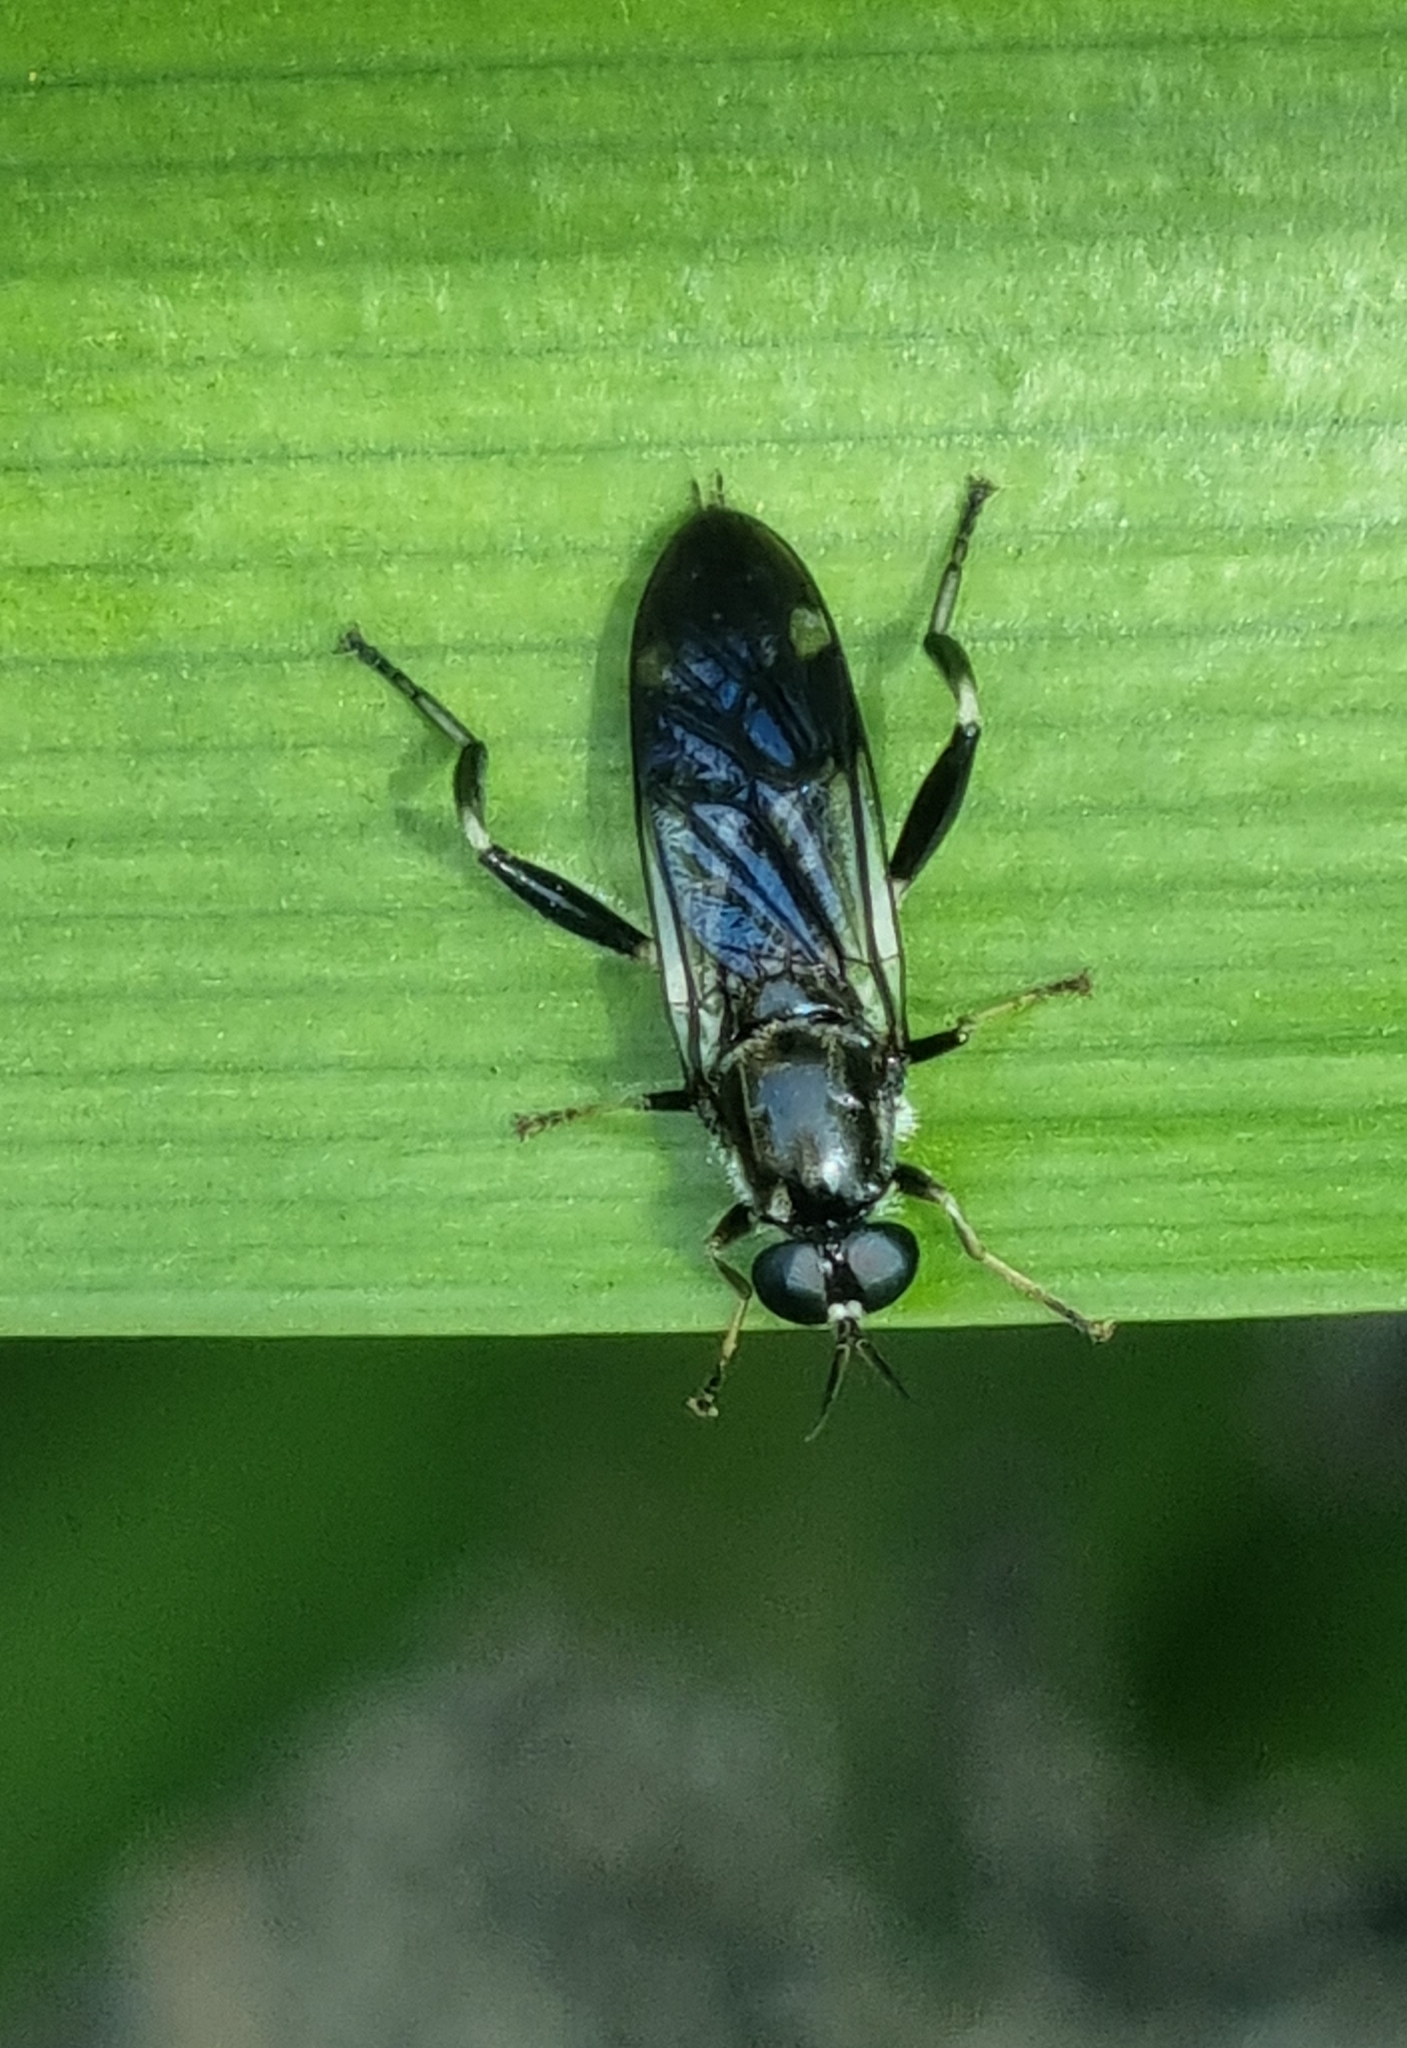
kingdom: Animalia
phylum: Arthropoda
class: Insecta
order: Diptera
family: Stratiomyidae
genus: Exaireta
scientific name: Exaireta spinigera
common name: Blue soldier fly
